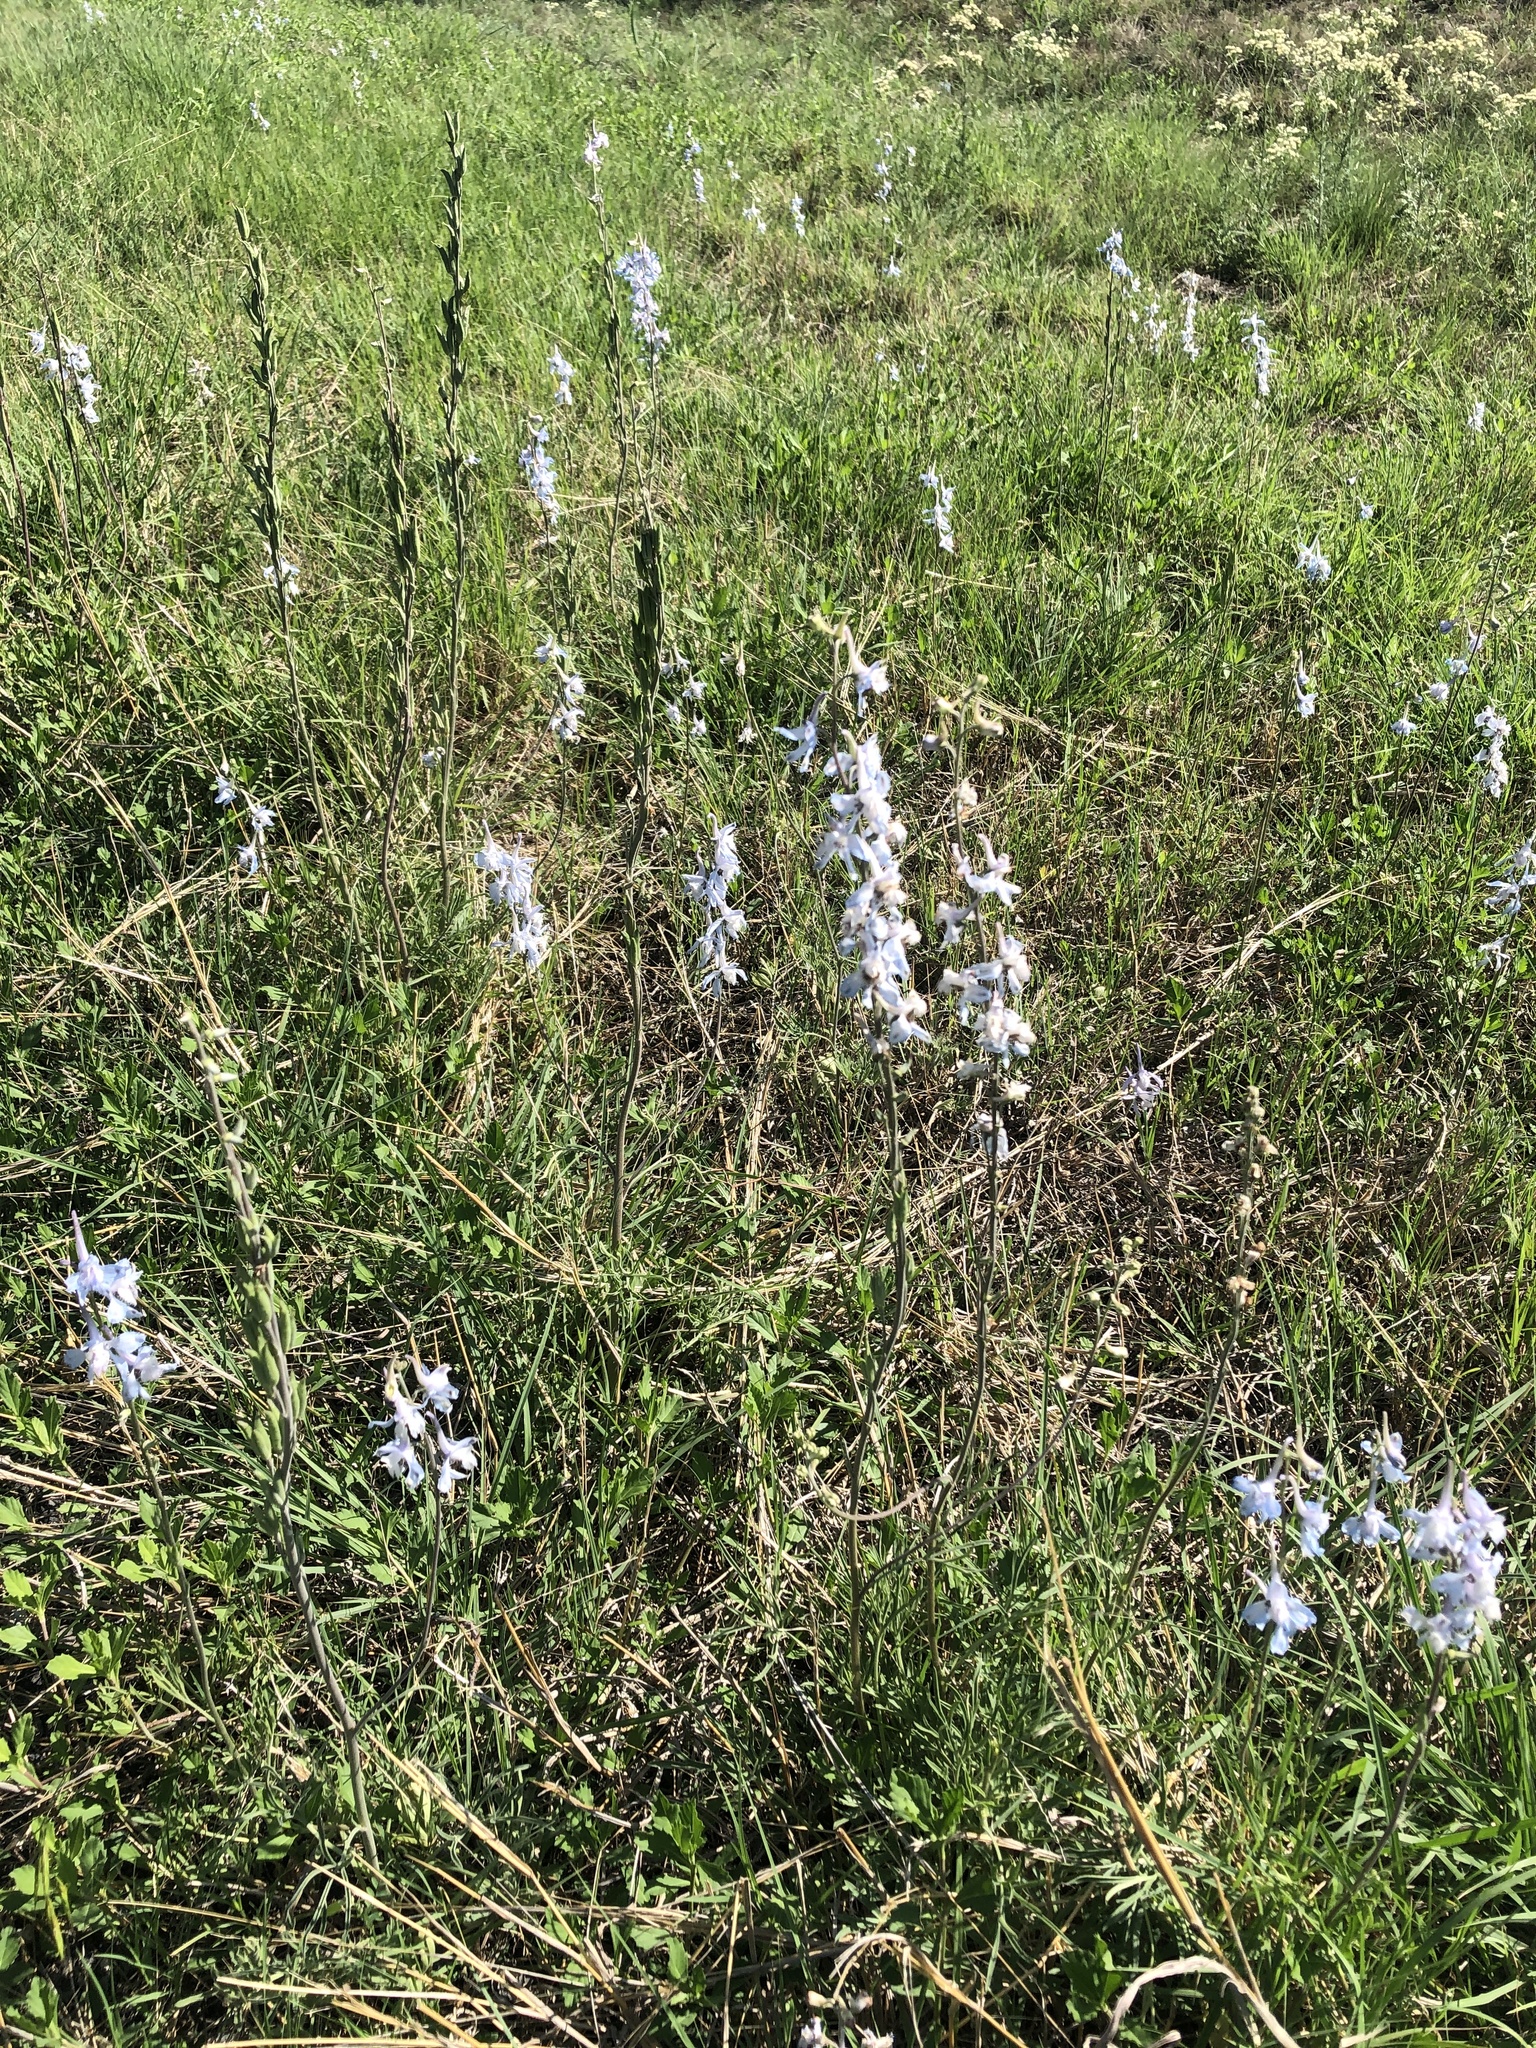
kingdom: Plantae
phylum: Tracheophyta
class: Magnoliopsida
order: Ranunculales
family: Ranunculaceae
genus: Delphinium
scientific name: Delphinium carolinianum
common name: Carolina larkspur
